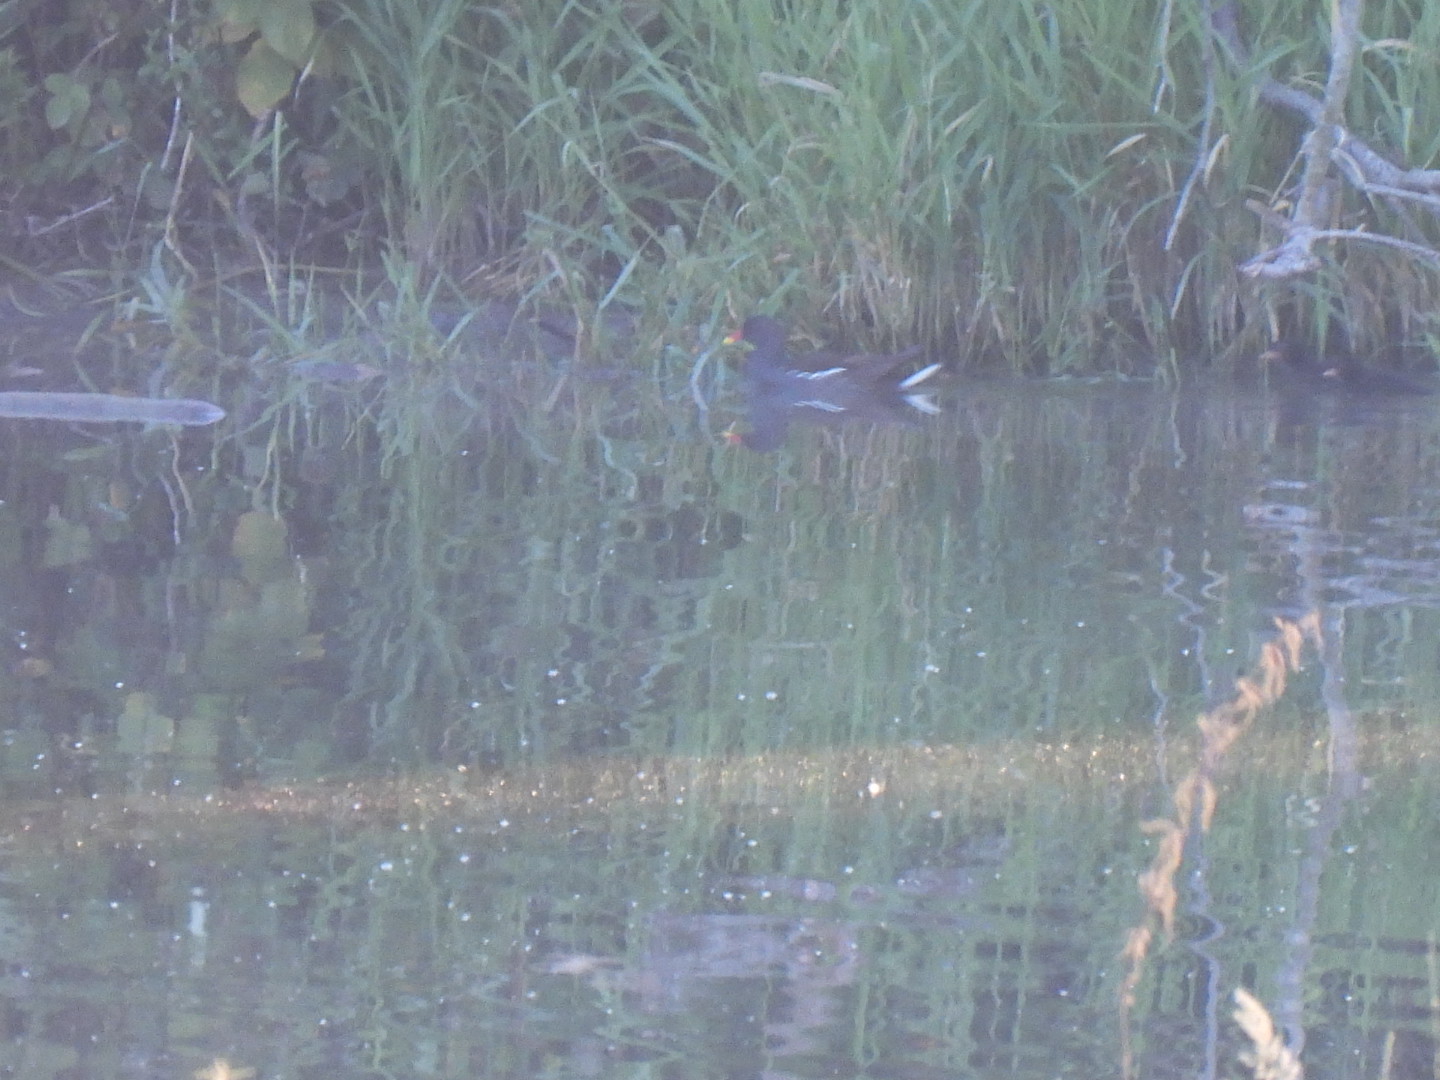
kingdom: Animalia
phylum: Chordata
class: Aves
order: Gruiformes
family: Rallidae
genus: Gallinula
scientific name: Gallinula chloropus
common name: Common moorhen
